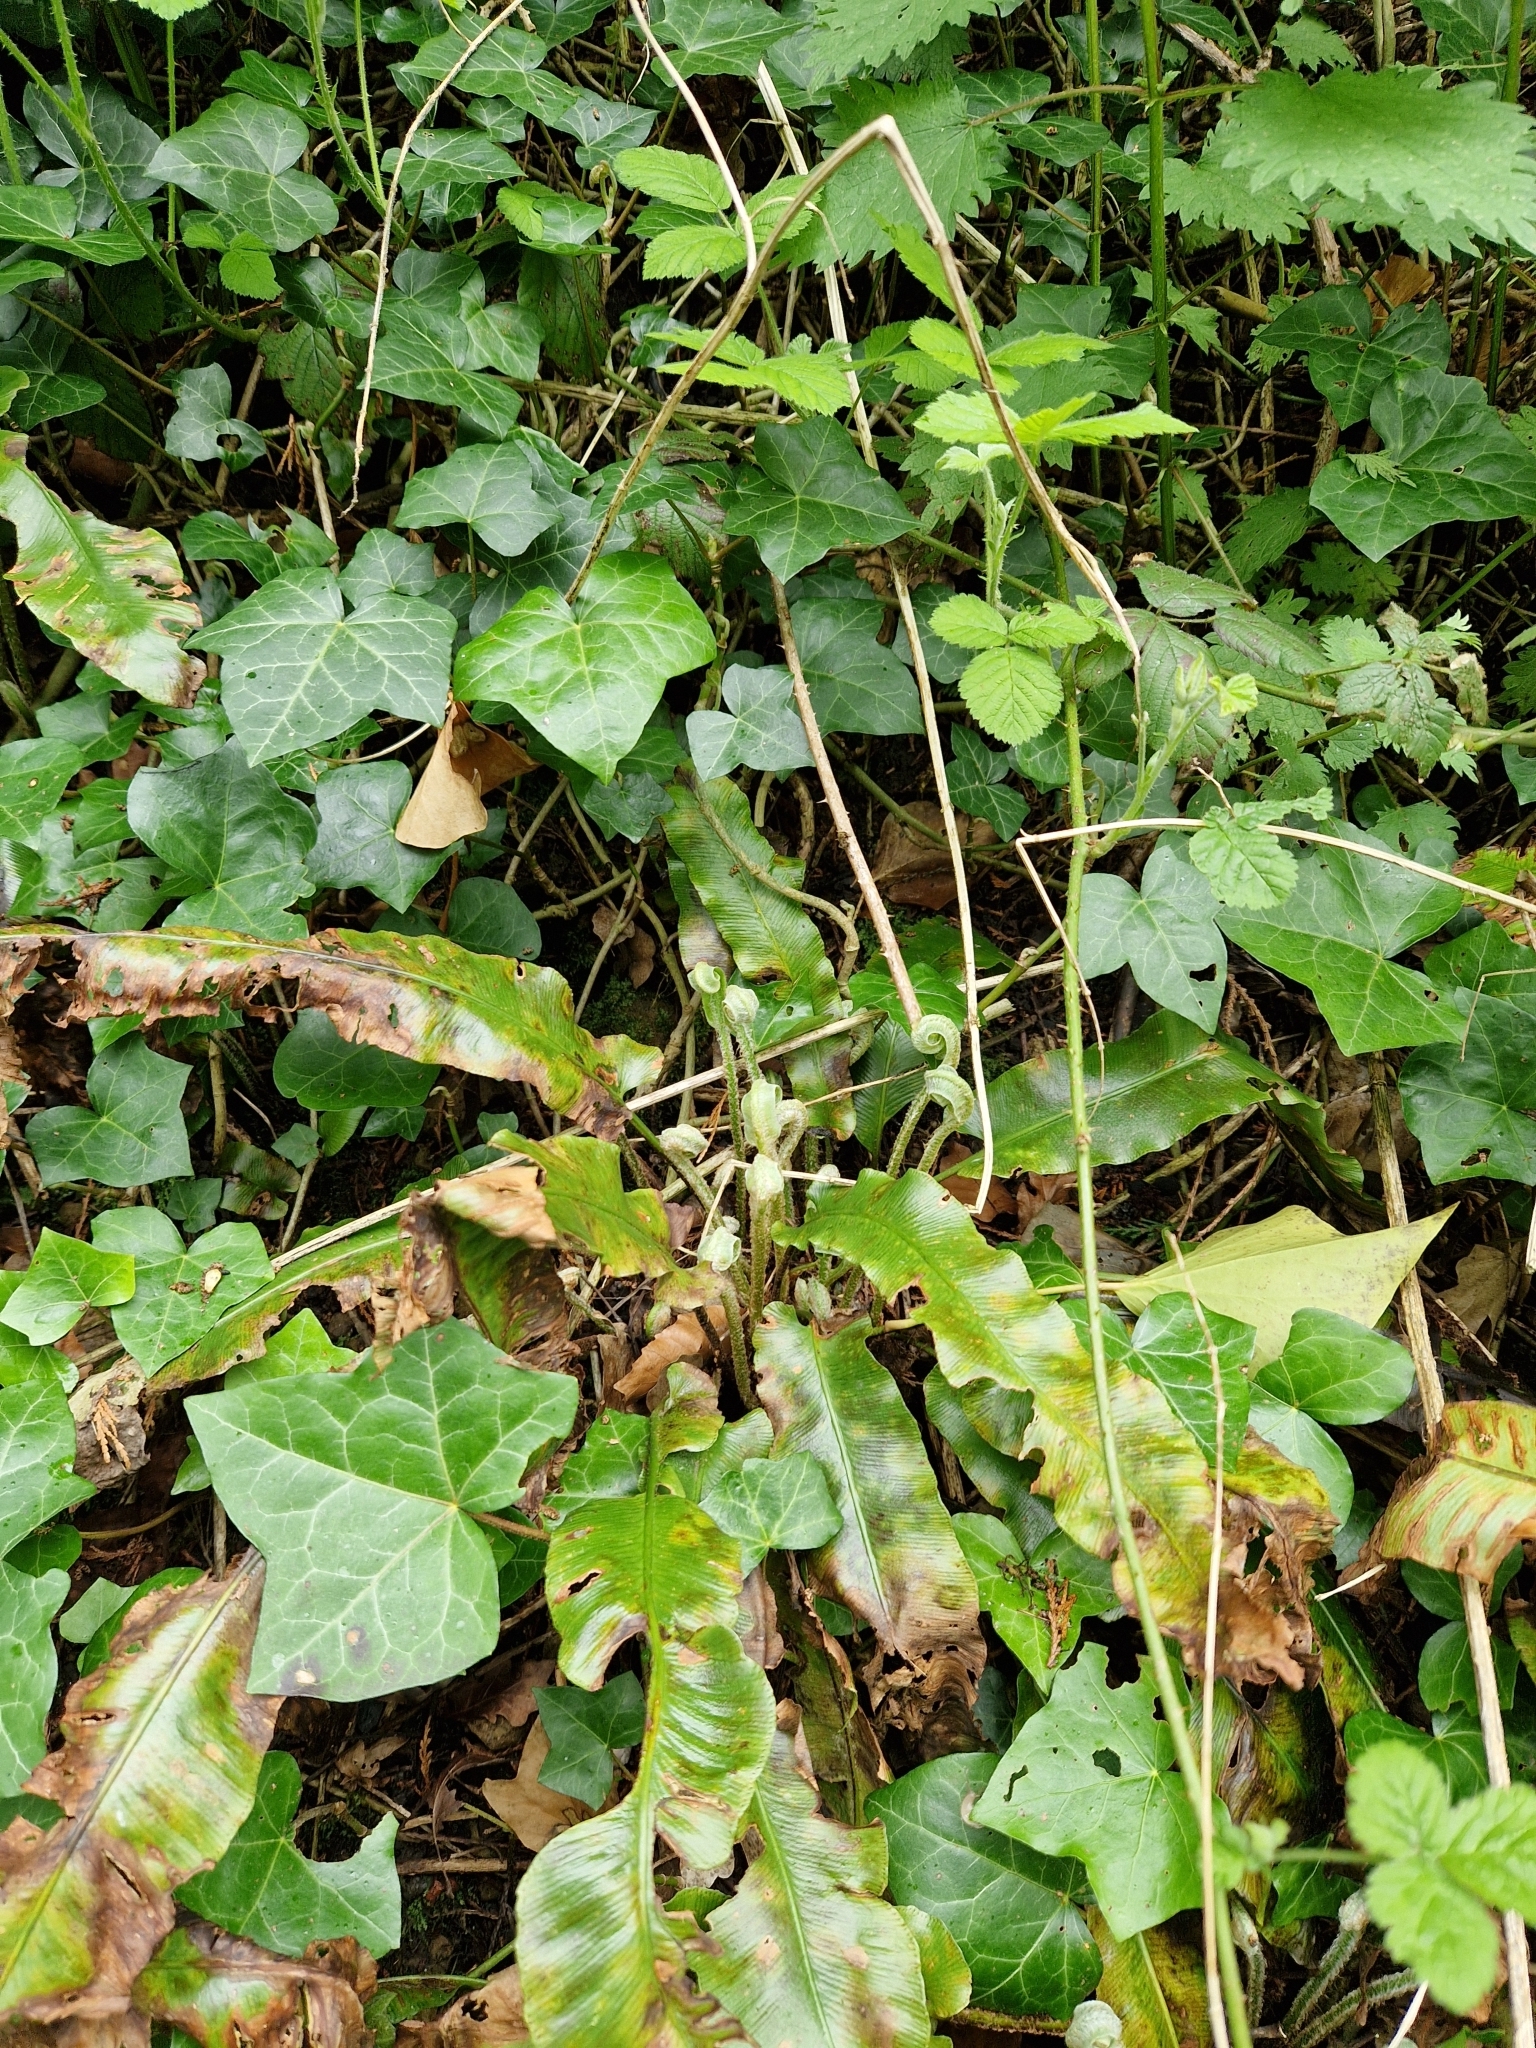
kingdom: Plantae
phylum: Tracheophyta
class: Polypodiopsida
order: Polypodiales
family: Aspleniaceae
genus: Asplenium
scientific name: Asplenium scolopendrium
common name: Hart's-tongue fern
